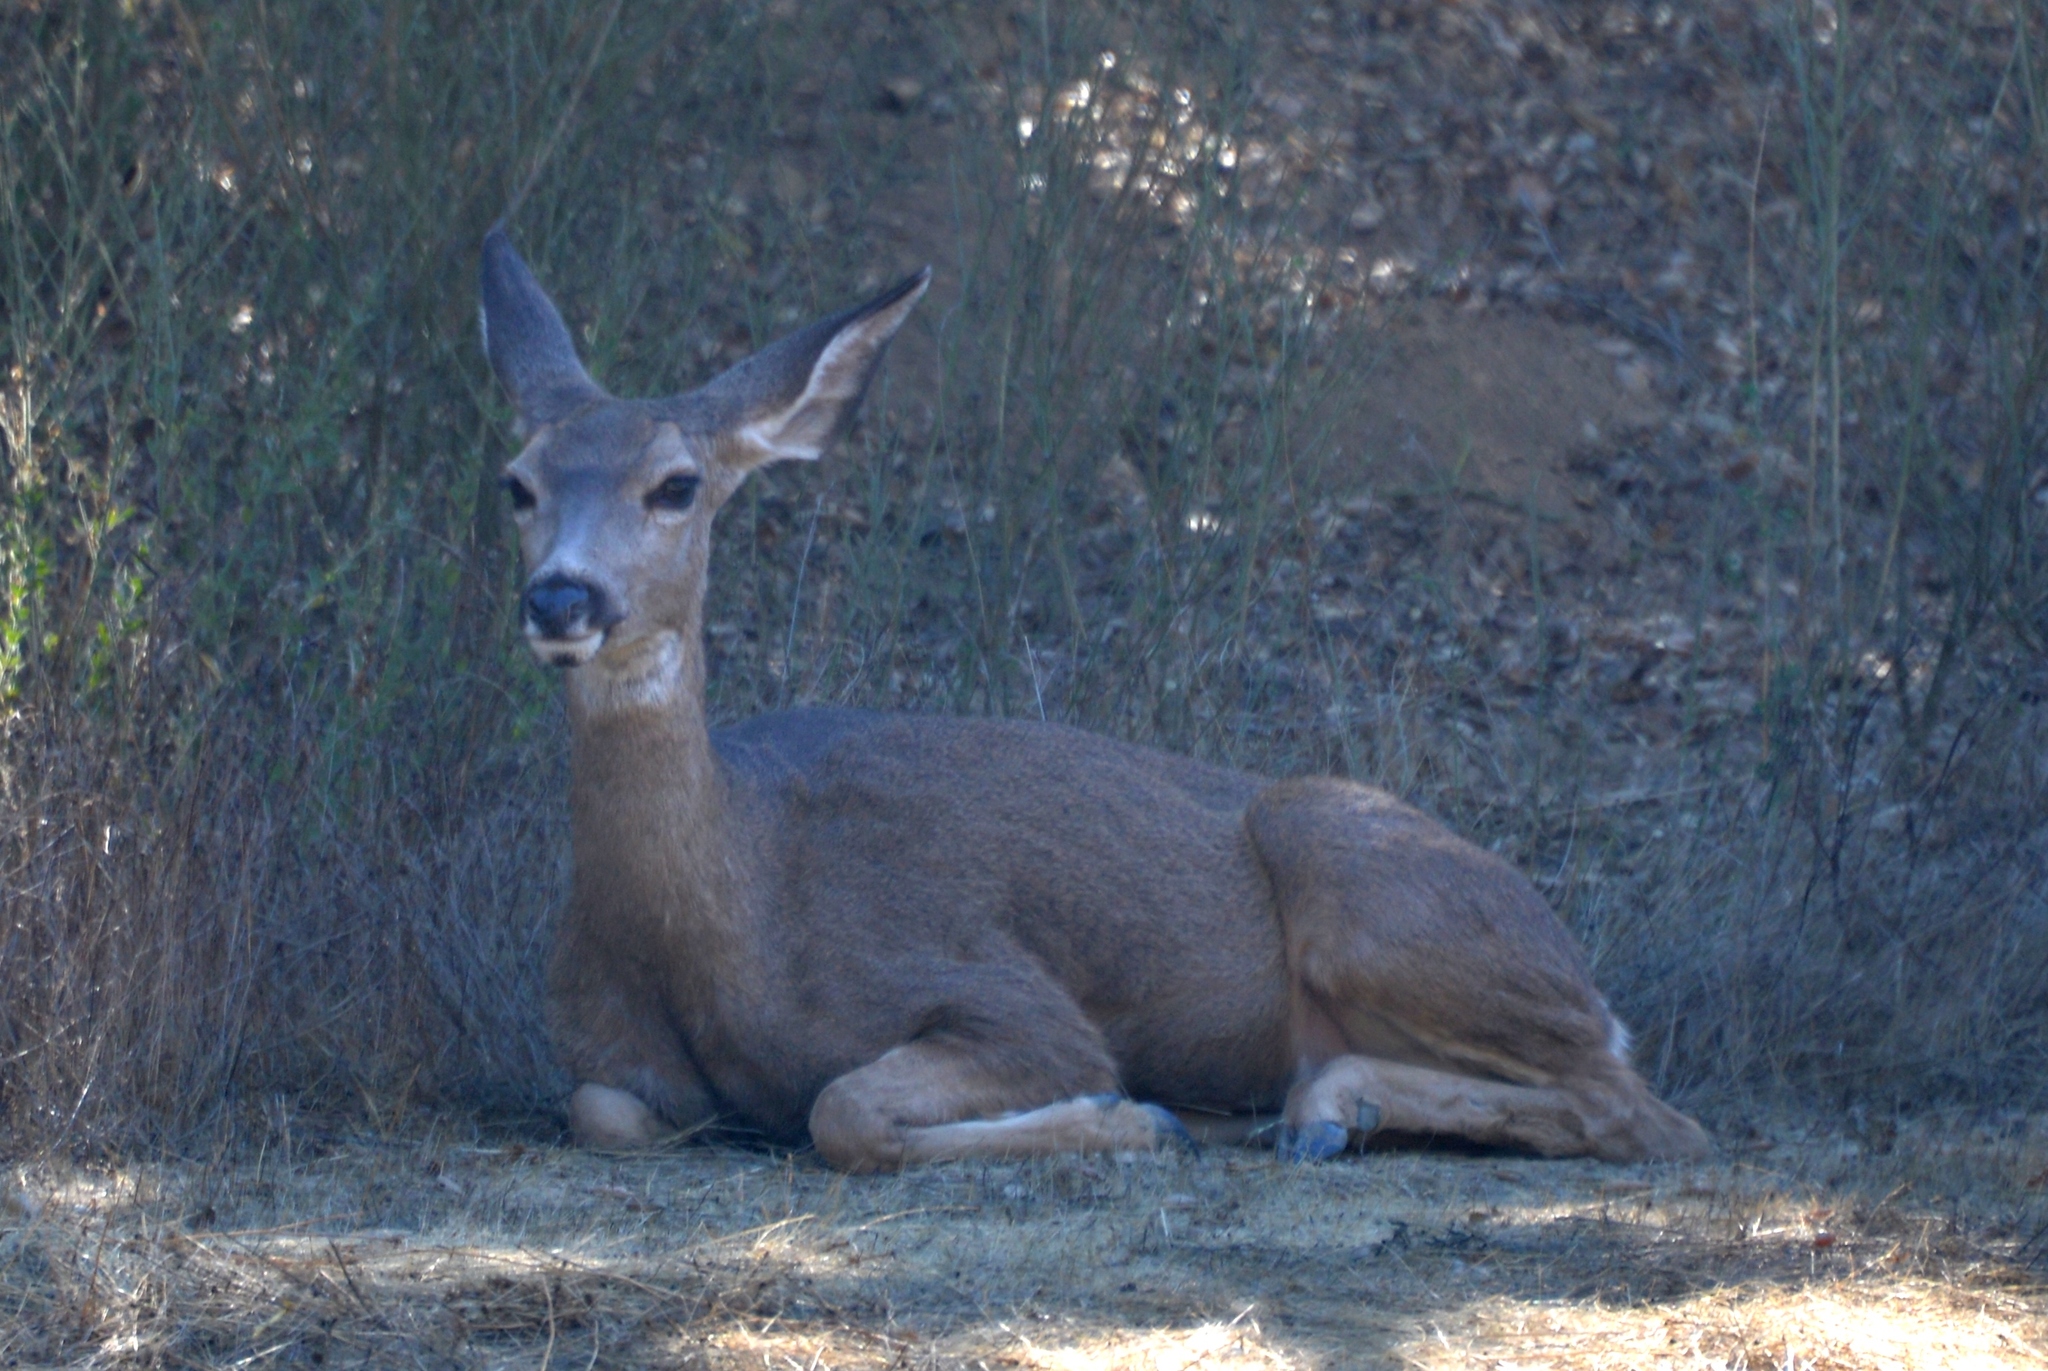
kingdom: Animalia
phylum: Chordata
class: Mammalia
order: Artiodactyla
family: Cervidae
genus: Odocoileus
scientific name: Odocoileus hemionus
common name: Mule deer
